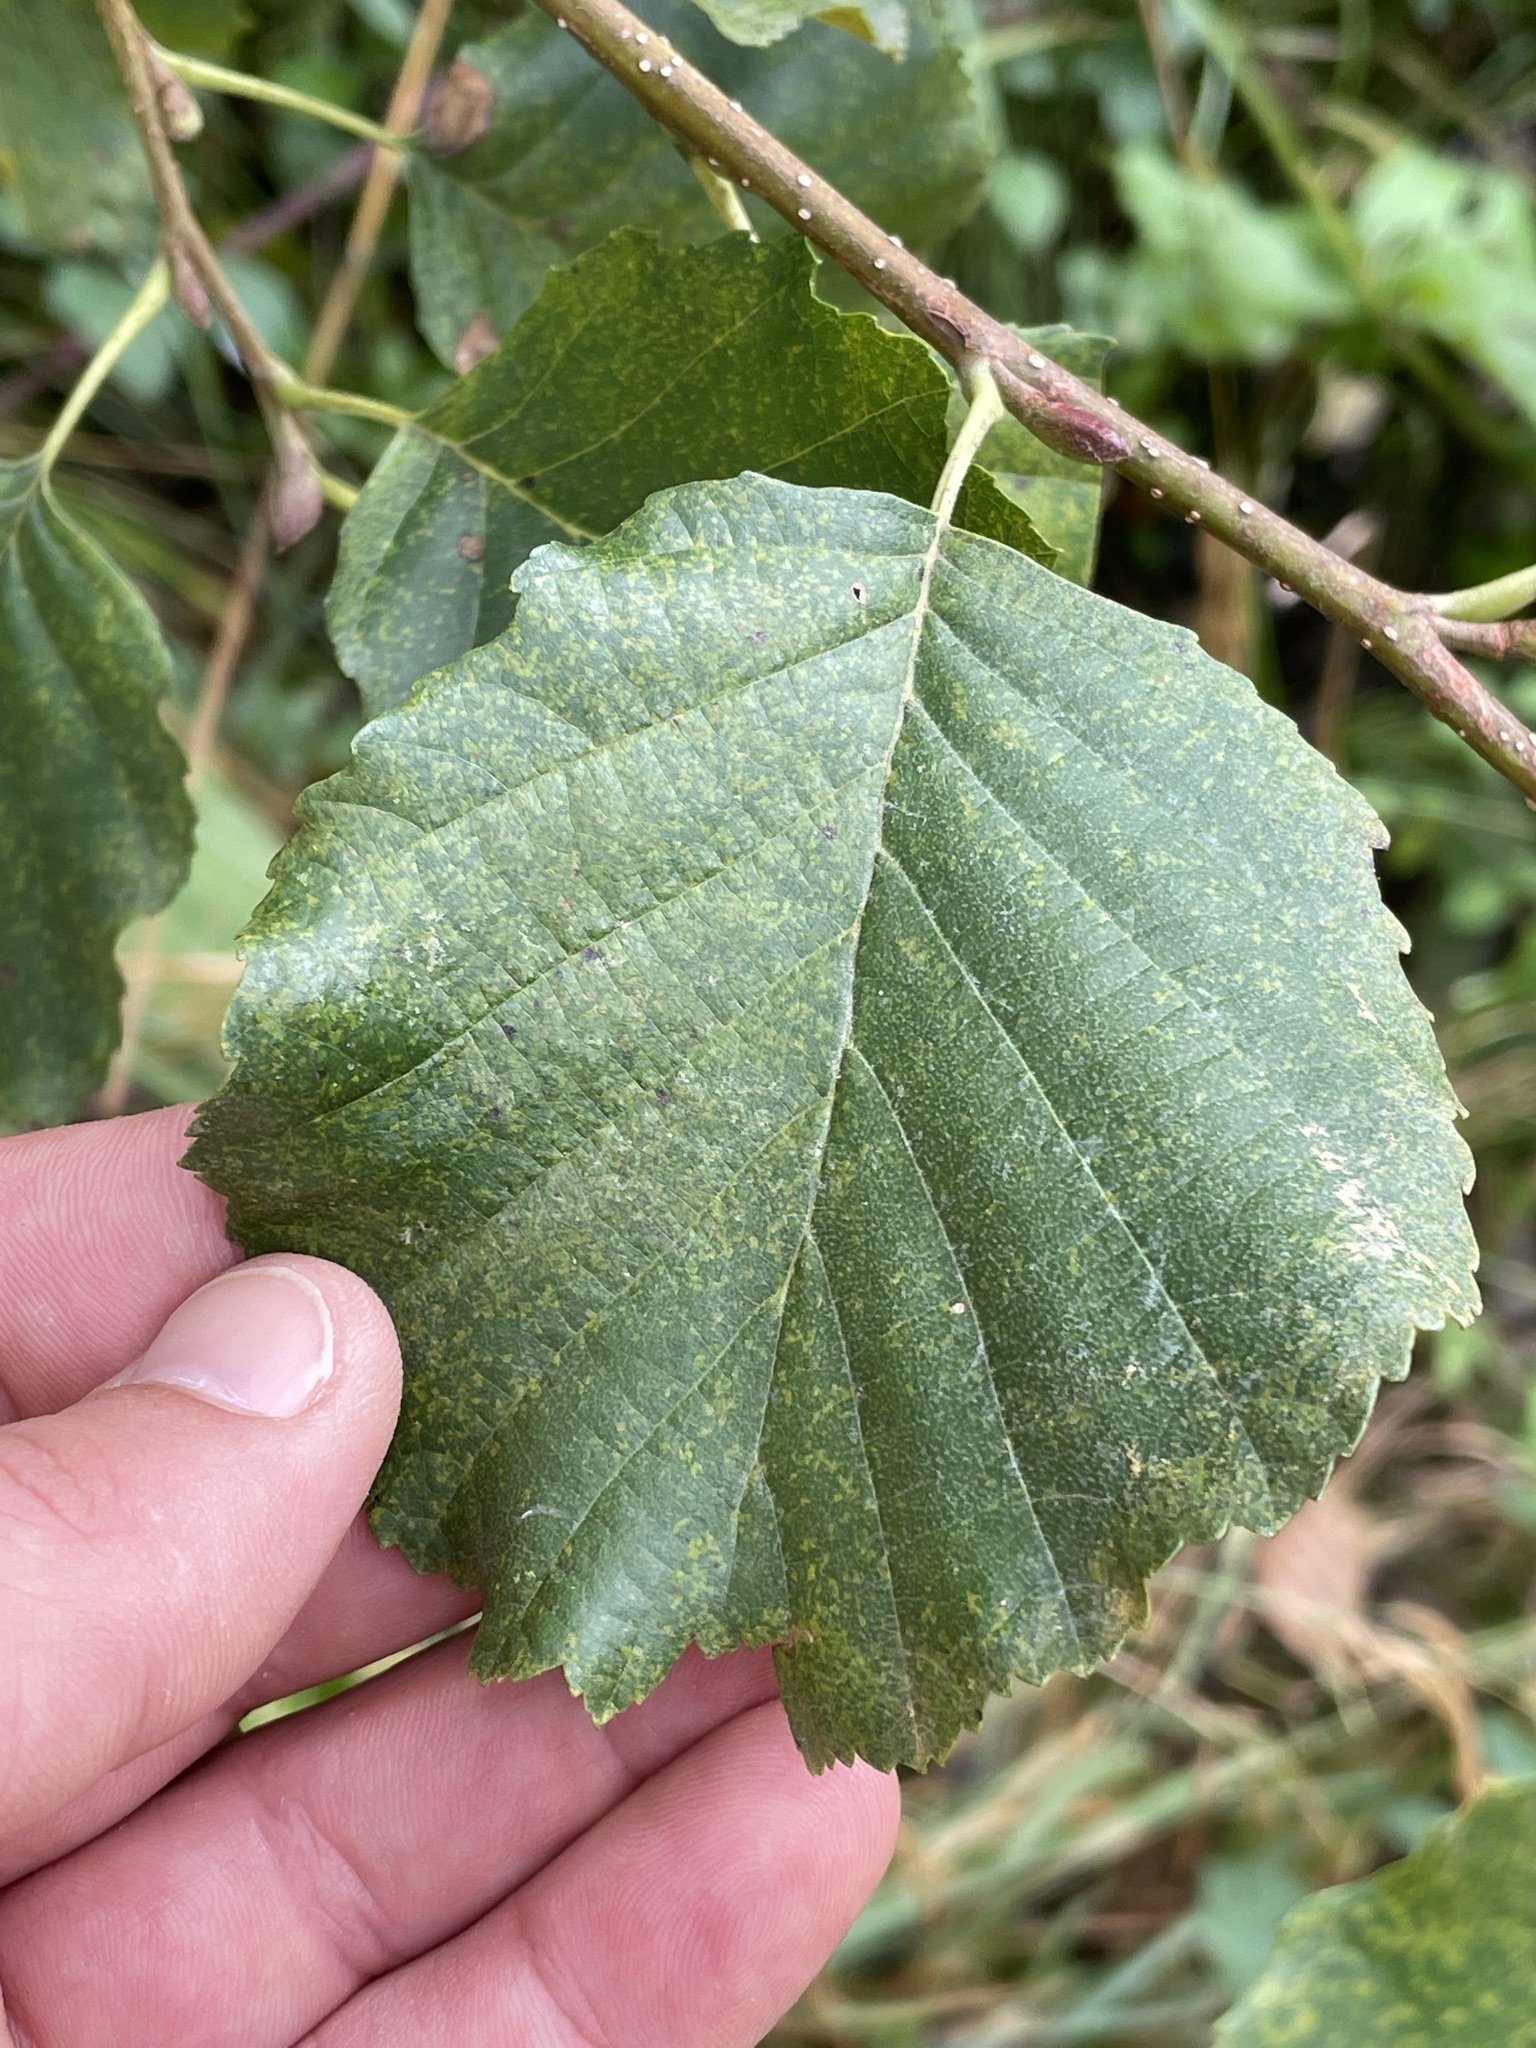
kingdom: Plantae
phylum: Tracheophyta
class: Magnoliopsida
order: Fagales
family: Betulaceae
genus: Alnus
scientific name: Alnus glutinosa
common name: Black alder
